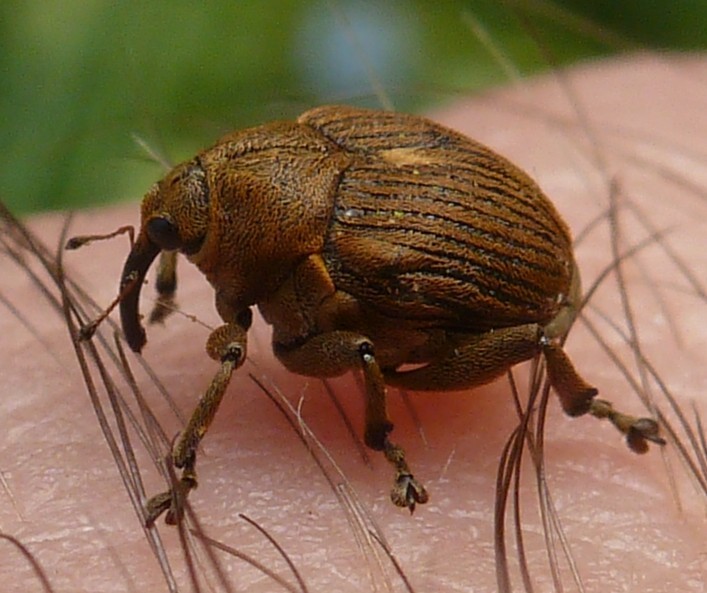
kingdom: Animalia
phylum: Arthropoda
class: Insecta
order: Coleoptera
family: Curculionidae
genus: Mononychus
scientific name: Mononychus punctumalbum
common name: Iris weevil
